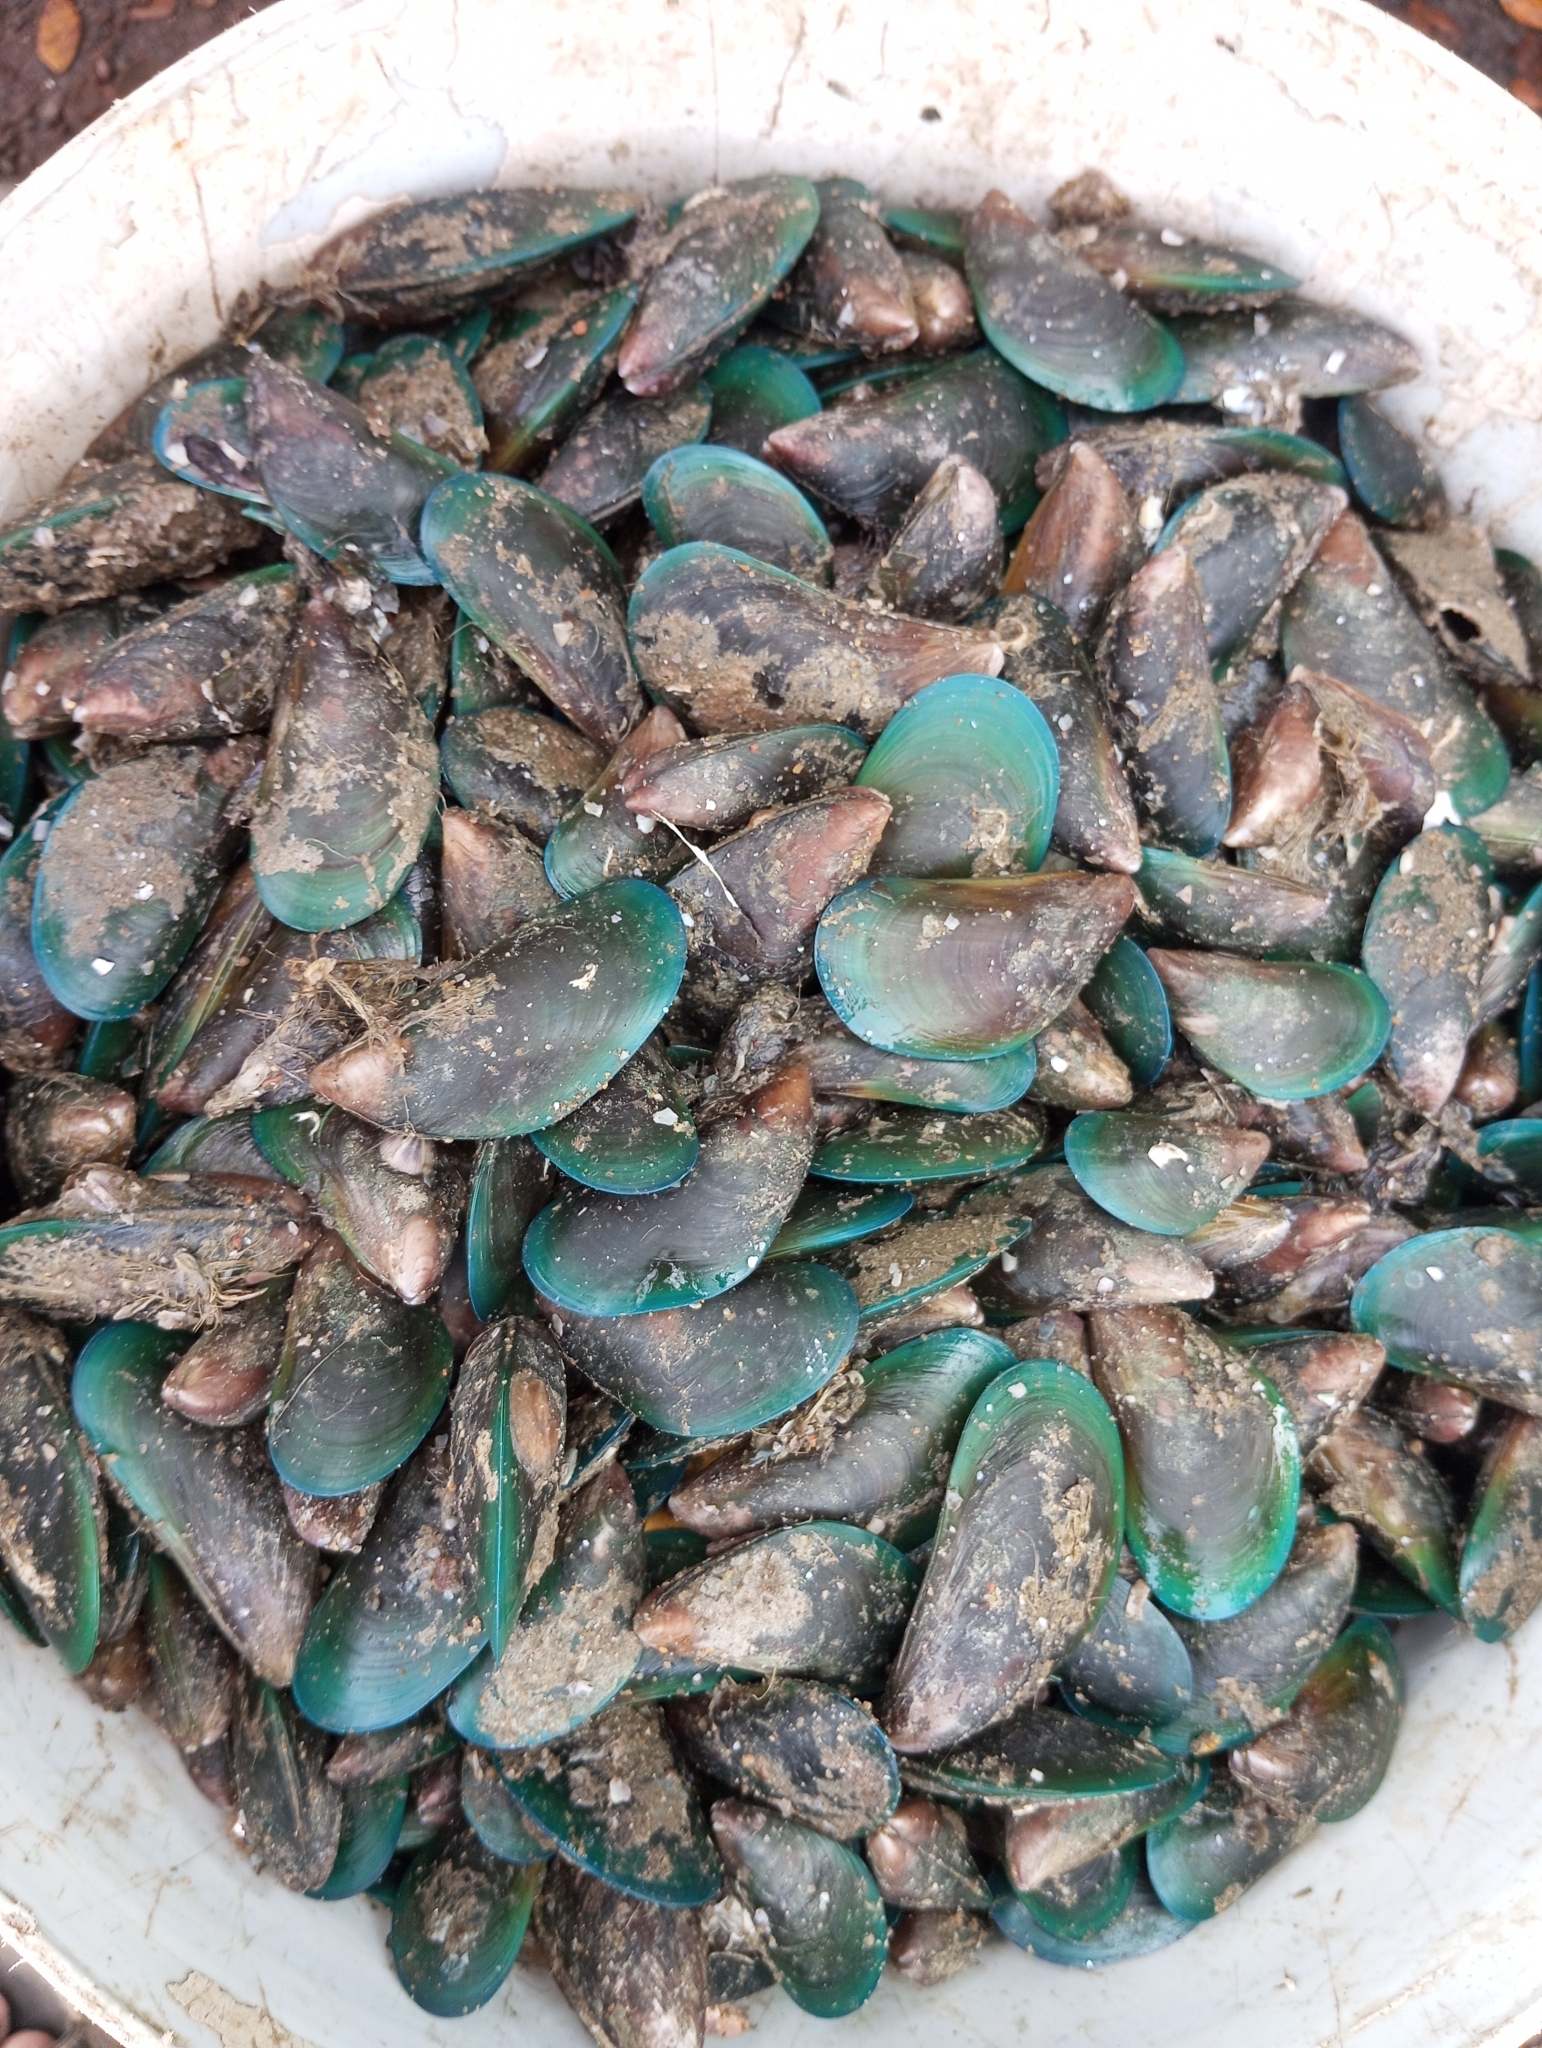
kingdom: Animalia
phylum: Mollusca
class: Bivalvia
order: Mytilida
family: Mytilidae
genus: Perna
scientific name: Perna viridis
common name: Green mussel
